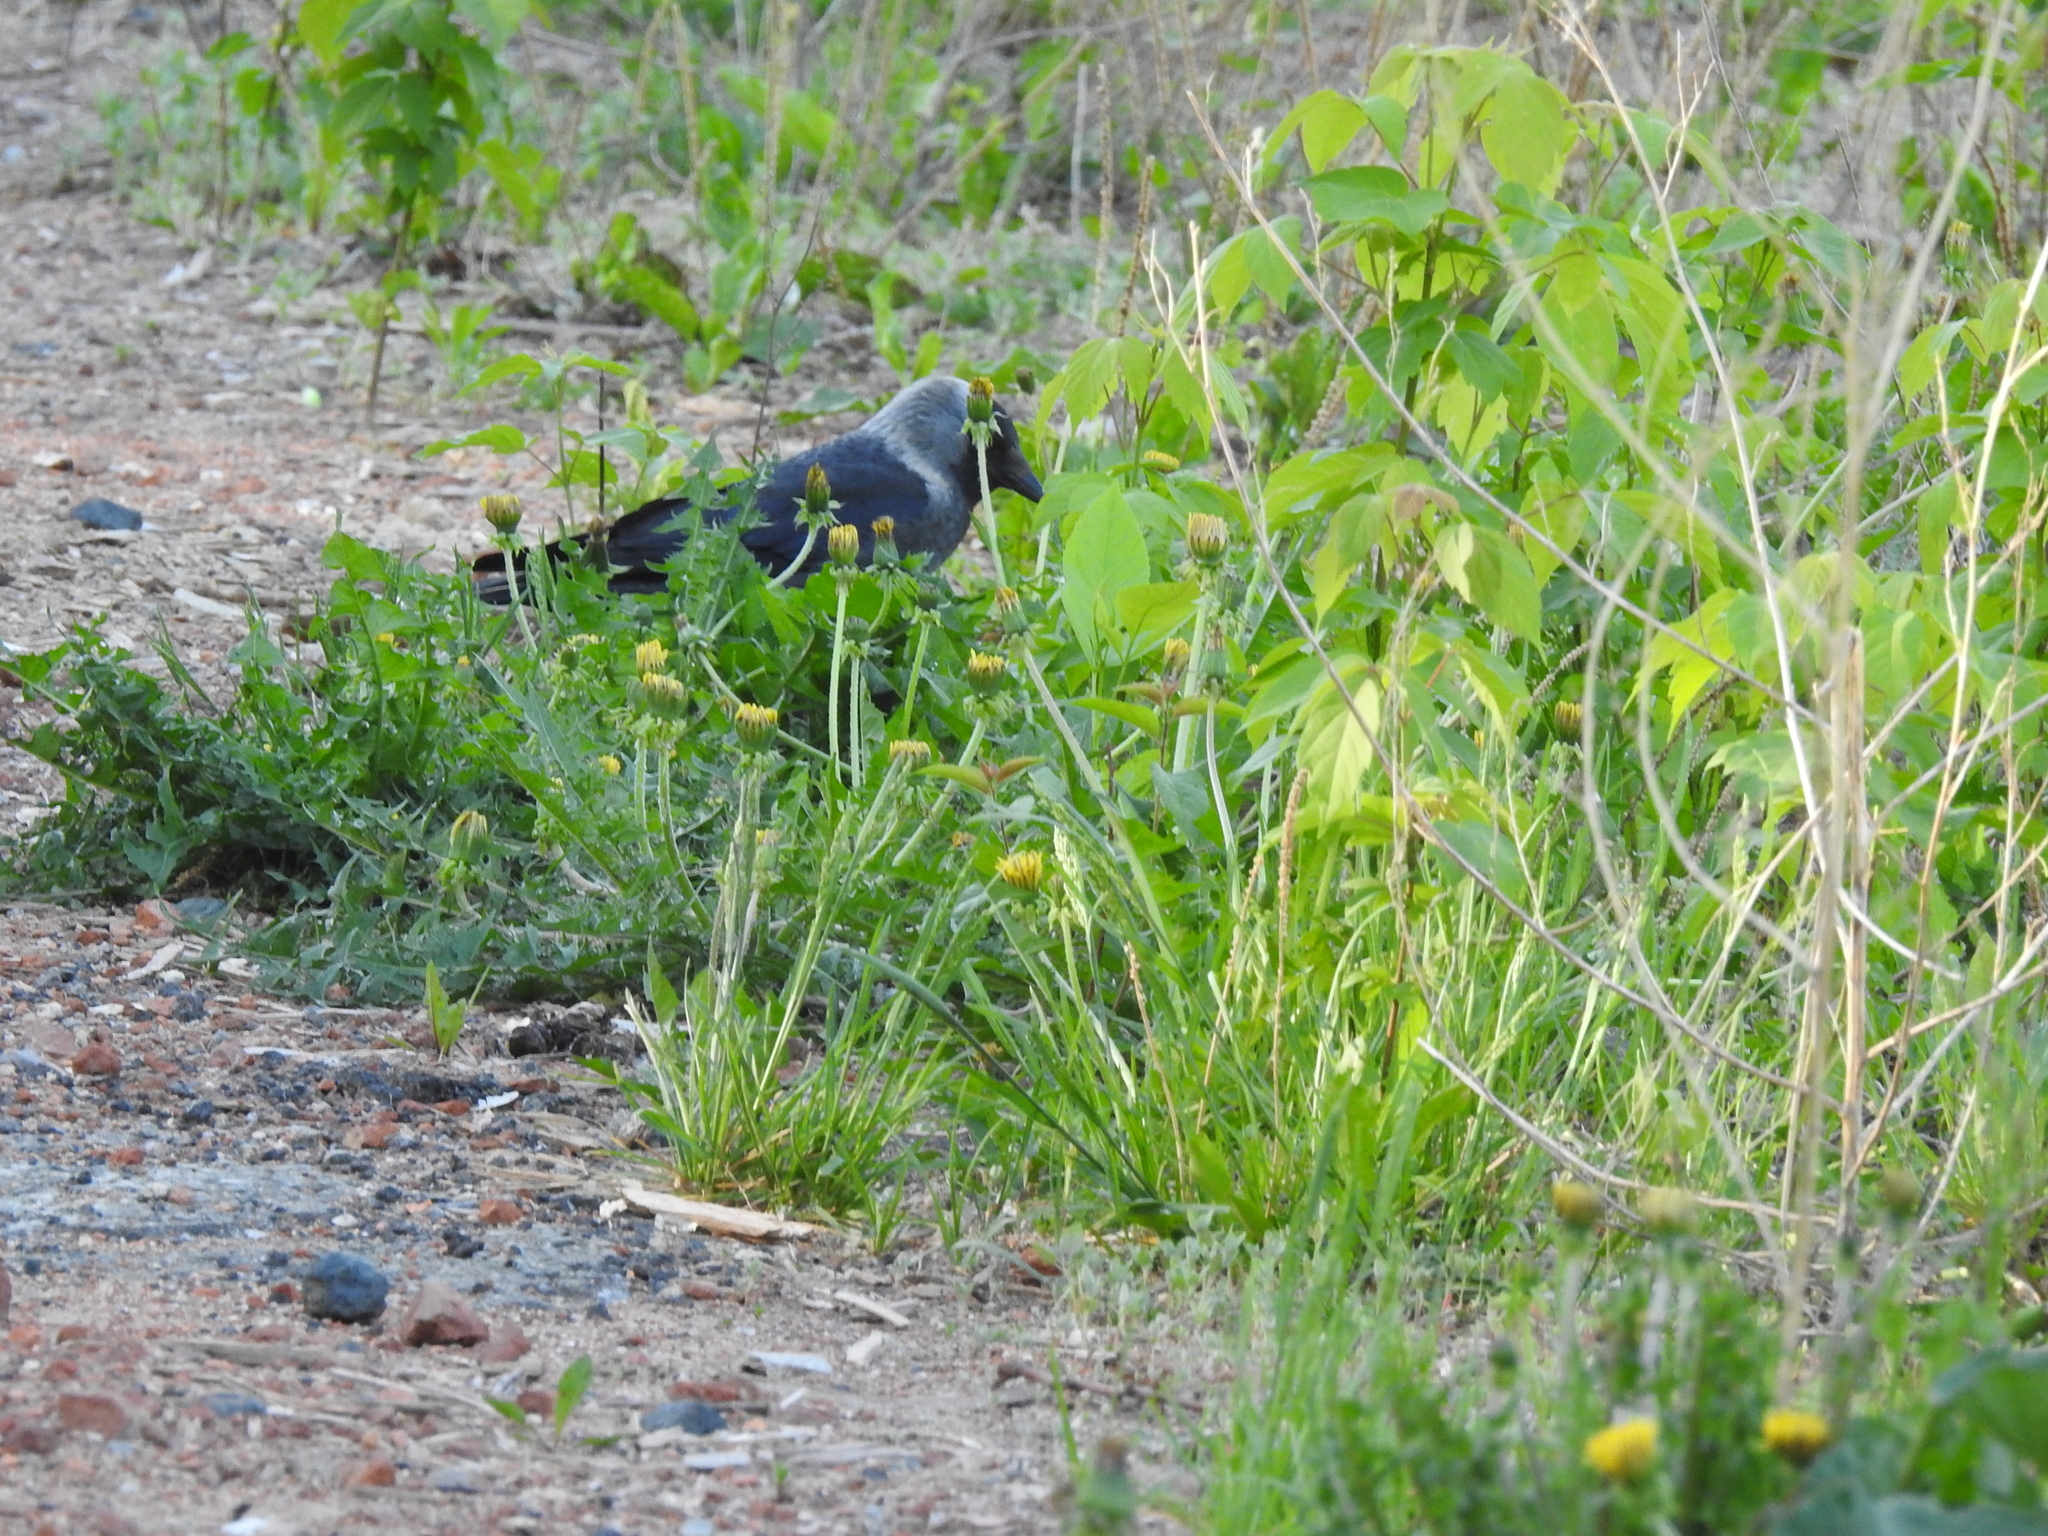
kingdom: Animalia
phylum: Chordata
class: Aves
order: Passeriformes
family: Corvidae
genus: Coloeus
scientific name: Coloeus monedula
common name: Western jackdaw
